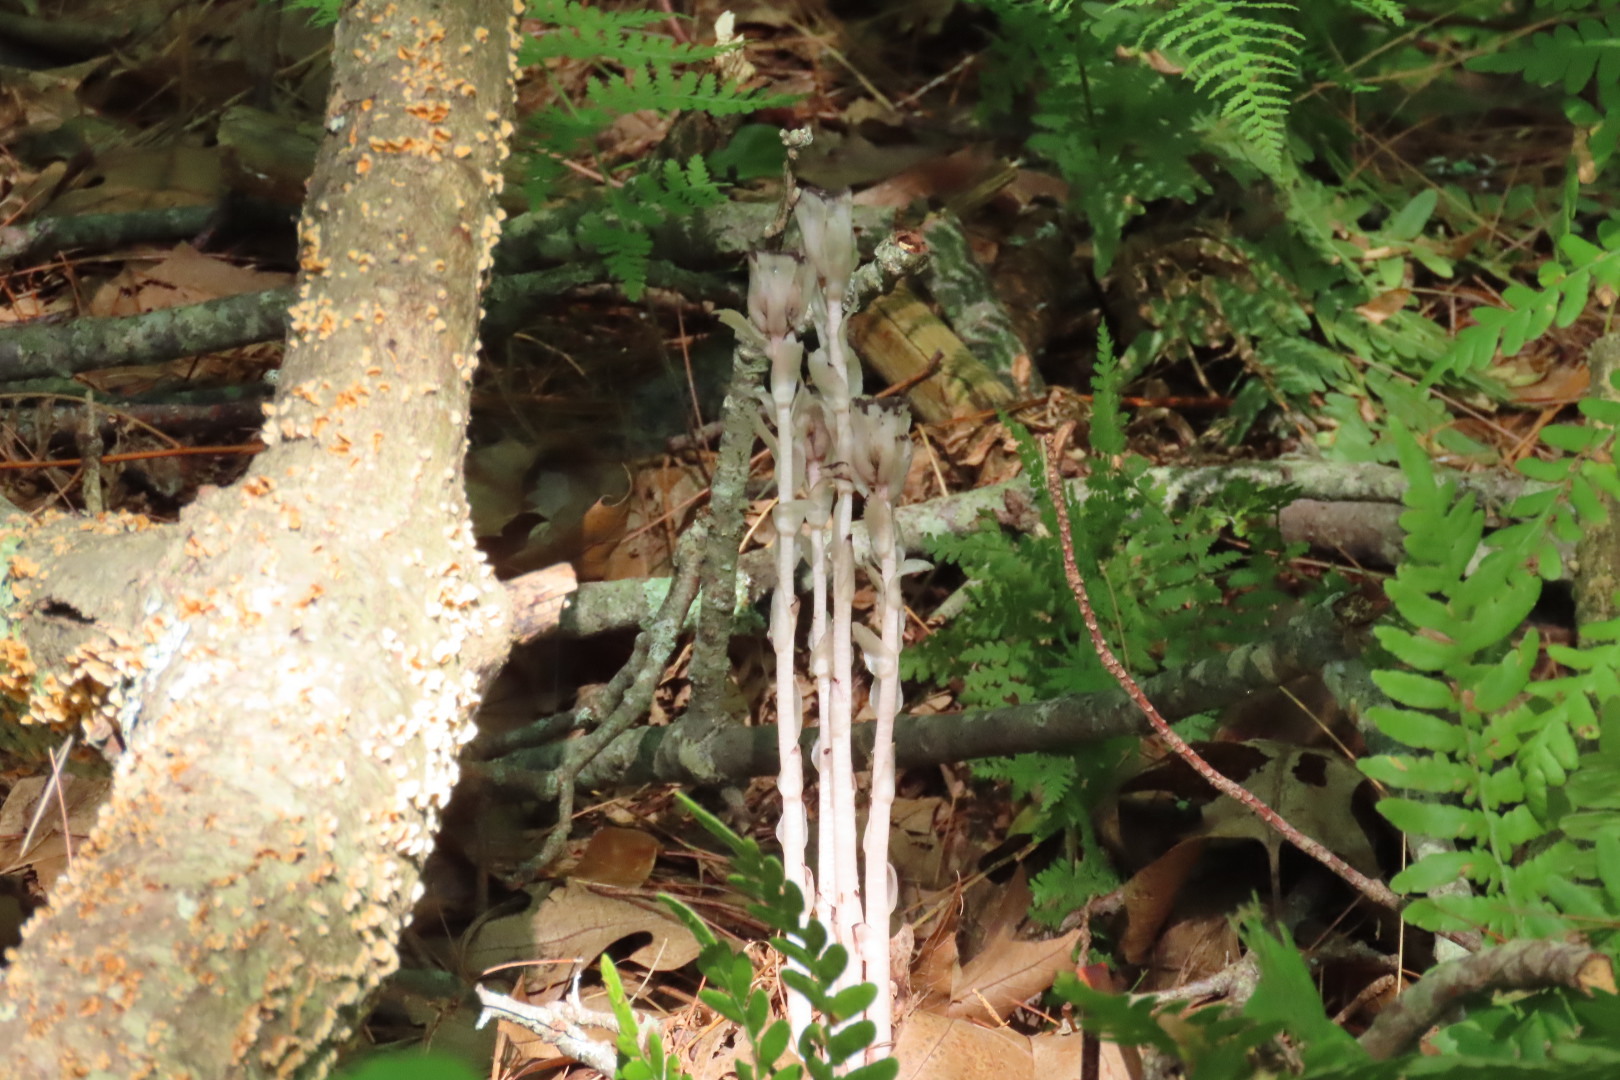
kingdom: Plantae
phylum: Tracheophyta
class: Magnoliopsida
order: Ericales
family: Ericaceae
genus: Monotropa
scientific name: Monotropa uniflora
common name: Convulsion root
